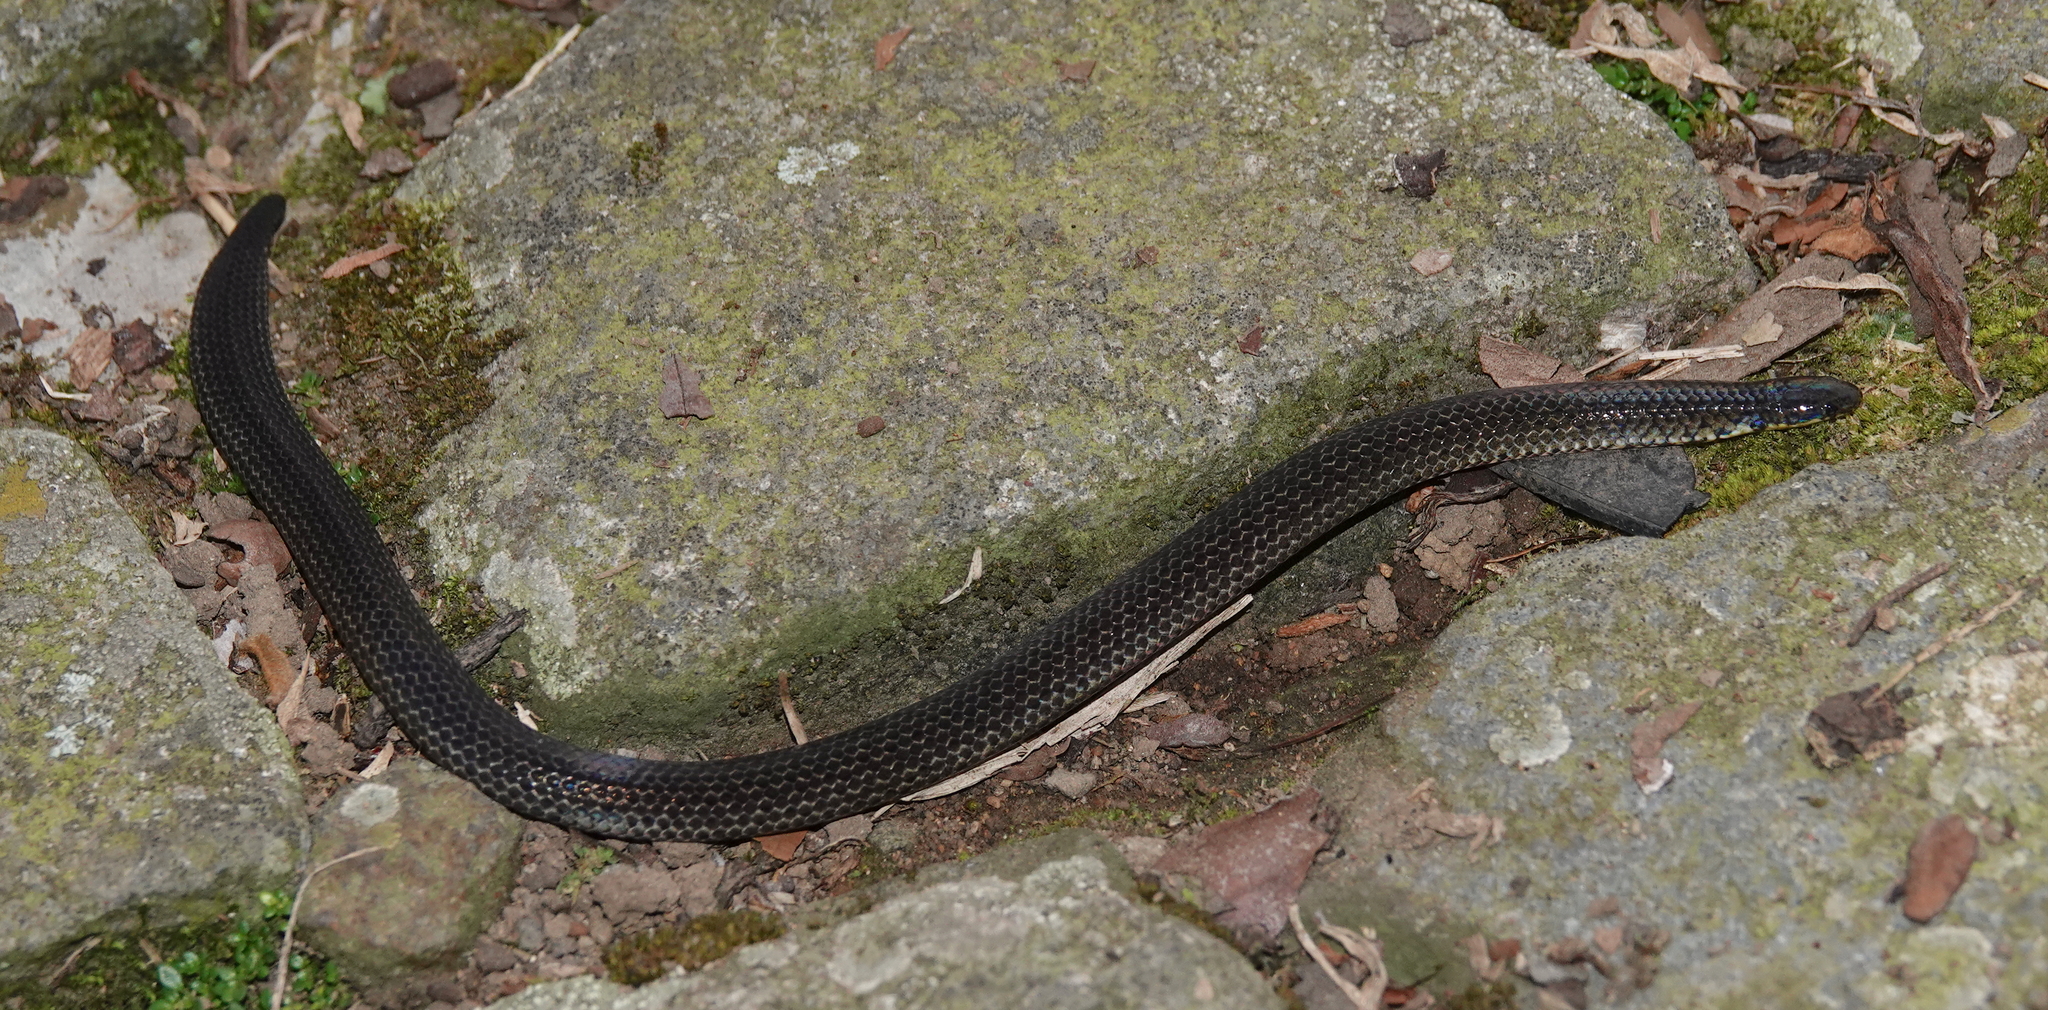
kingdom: Animalia
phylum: Chordata
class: Squamata
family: Colubridae
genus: Calamaria
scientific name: Calamaria linnaei
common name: Linnaeus's reed snake
